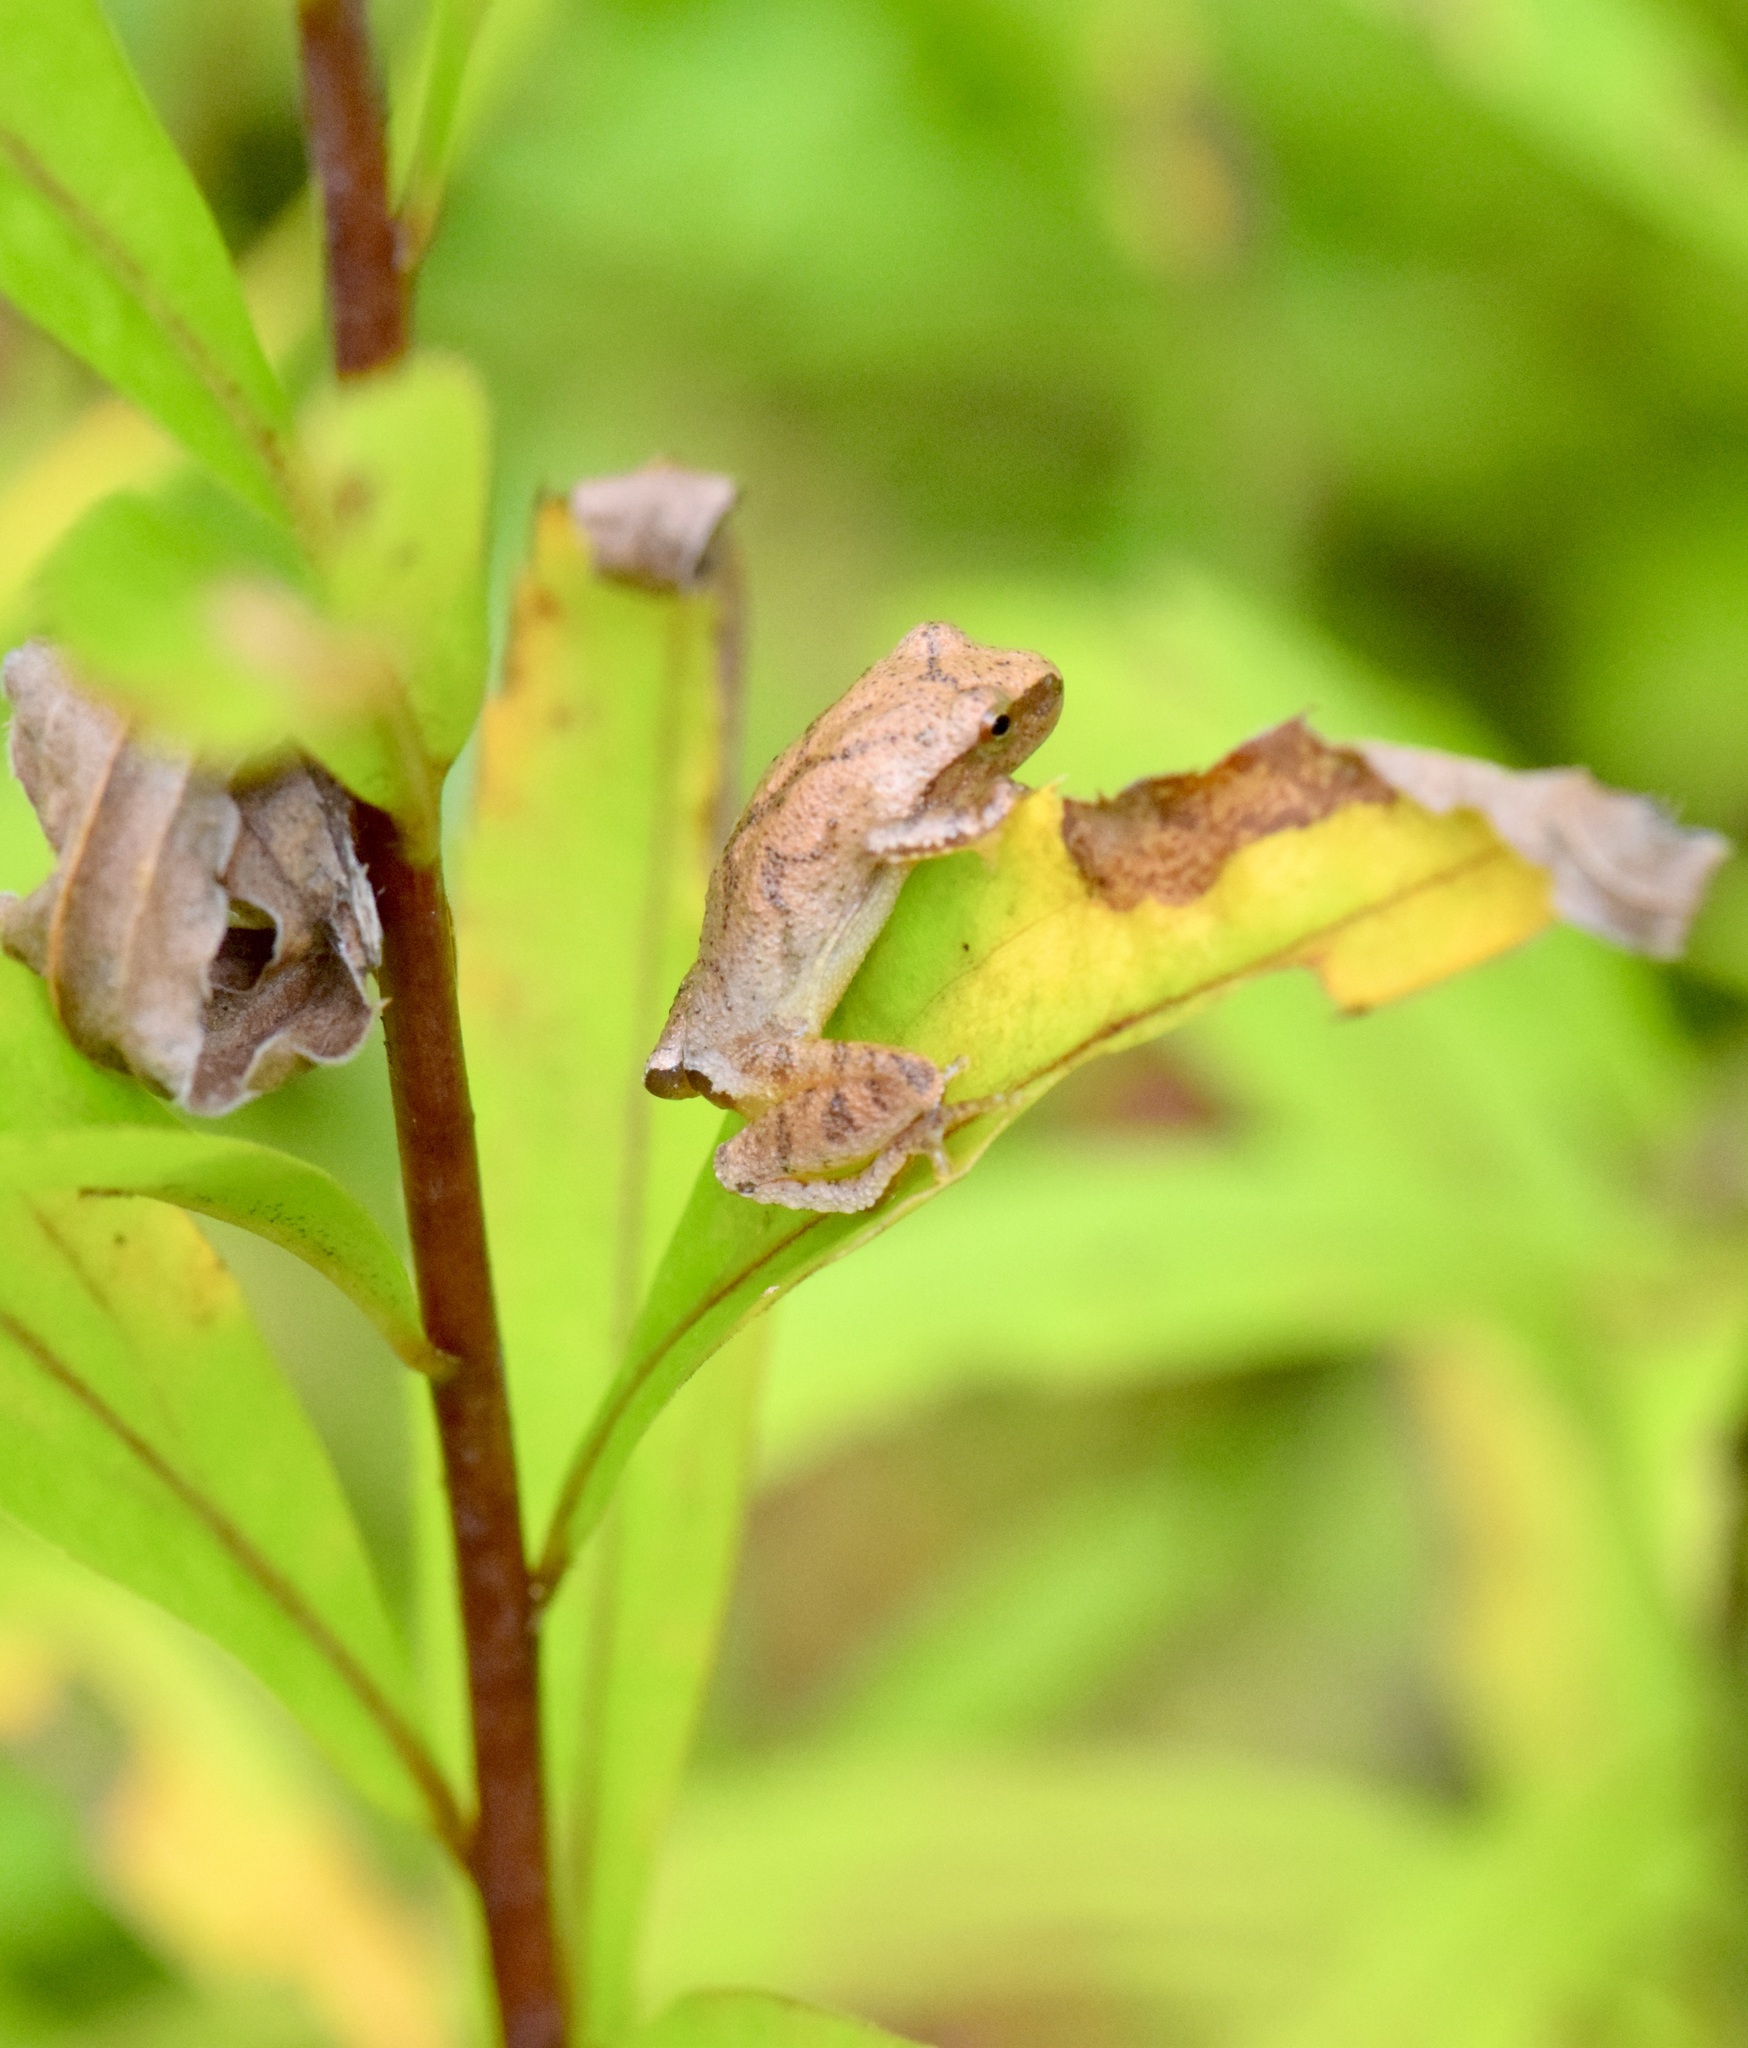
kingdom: Animalia
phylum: Chordata
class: Amphibia
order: Anura
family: Hylidae
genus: Pseudacris
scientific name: Pseudacris crucifer
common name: Spring peeper
